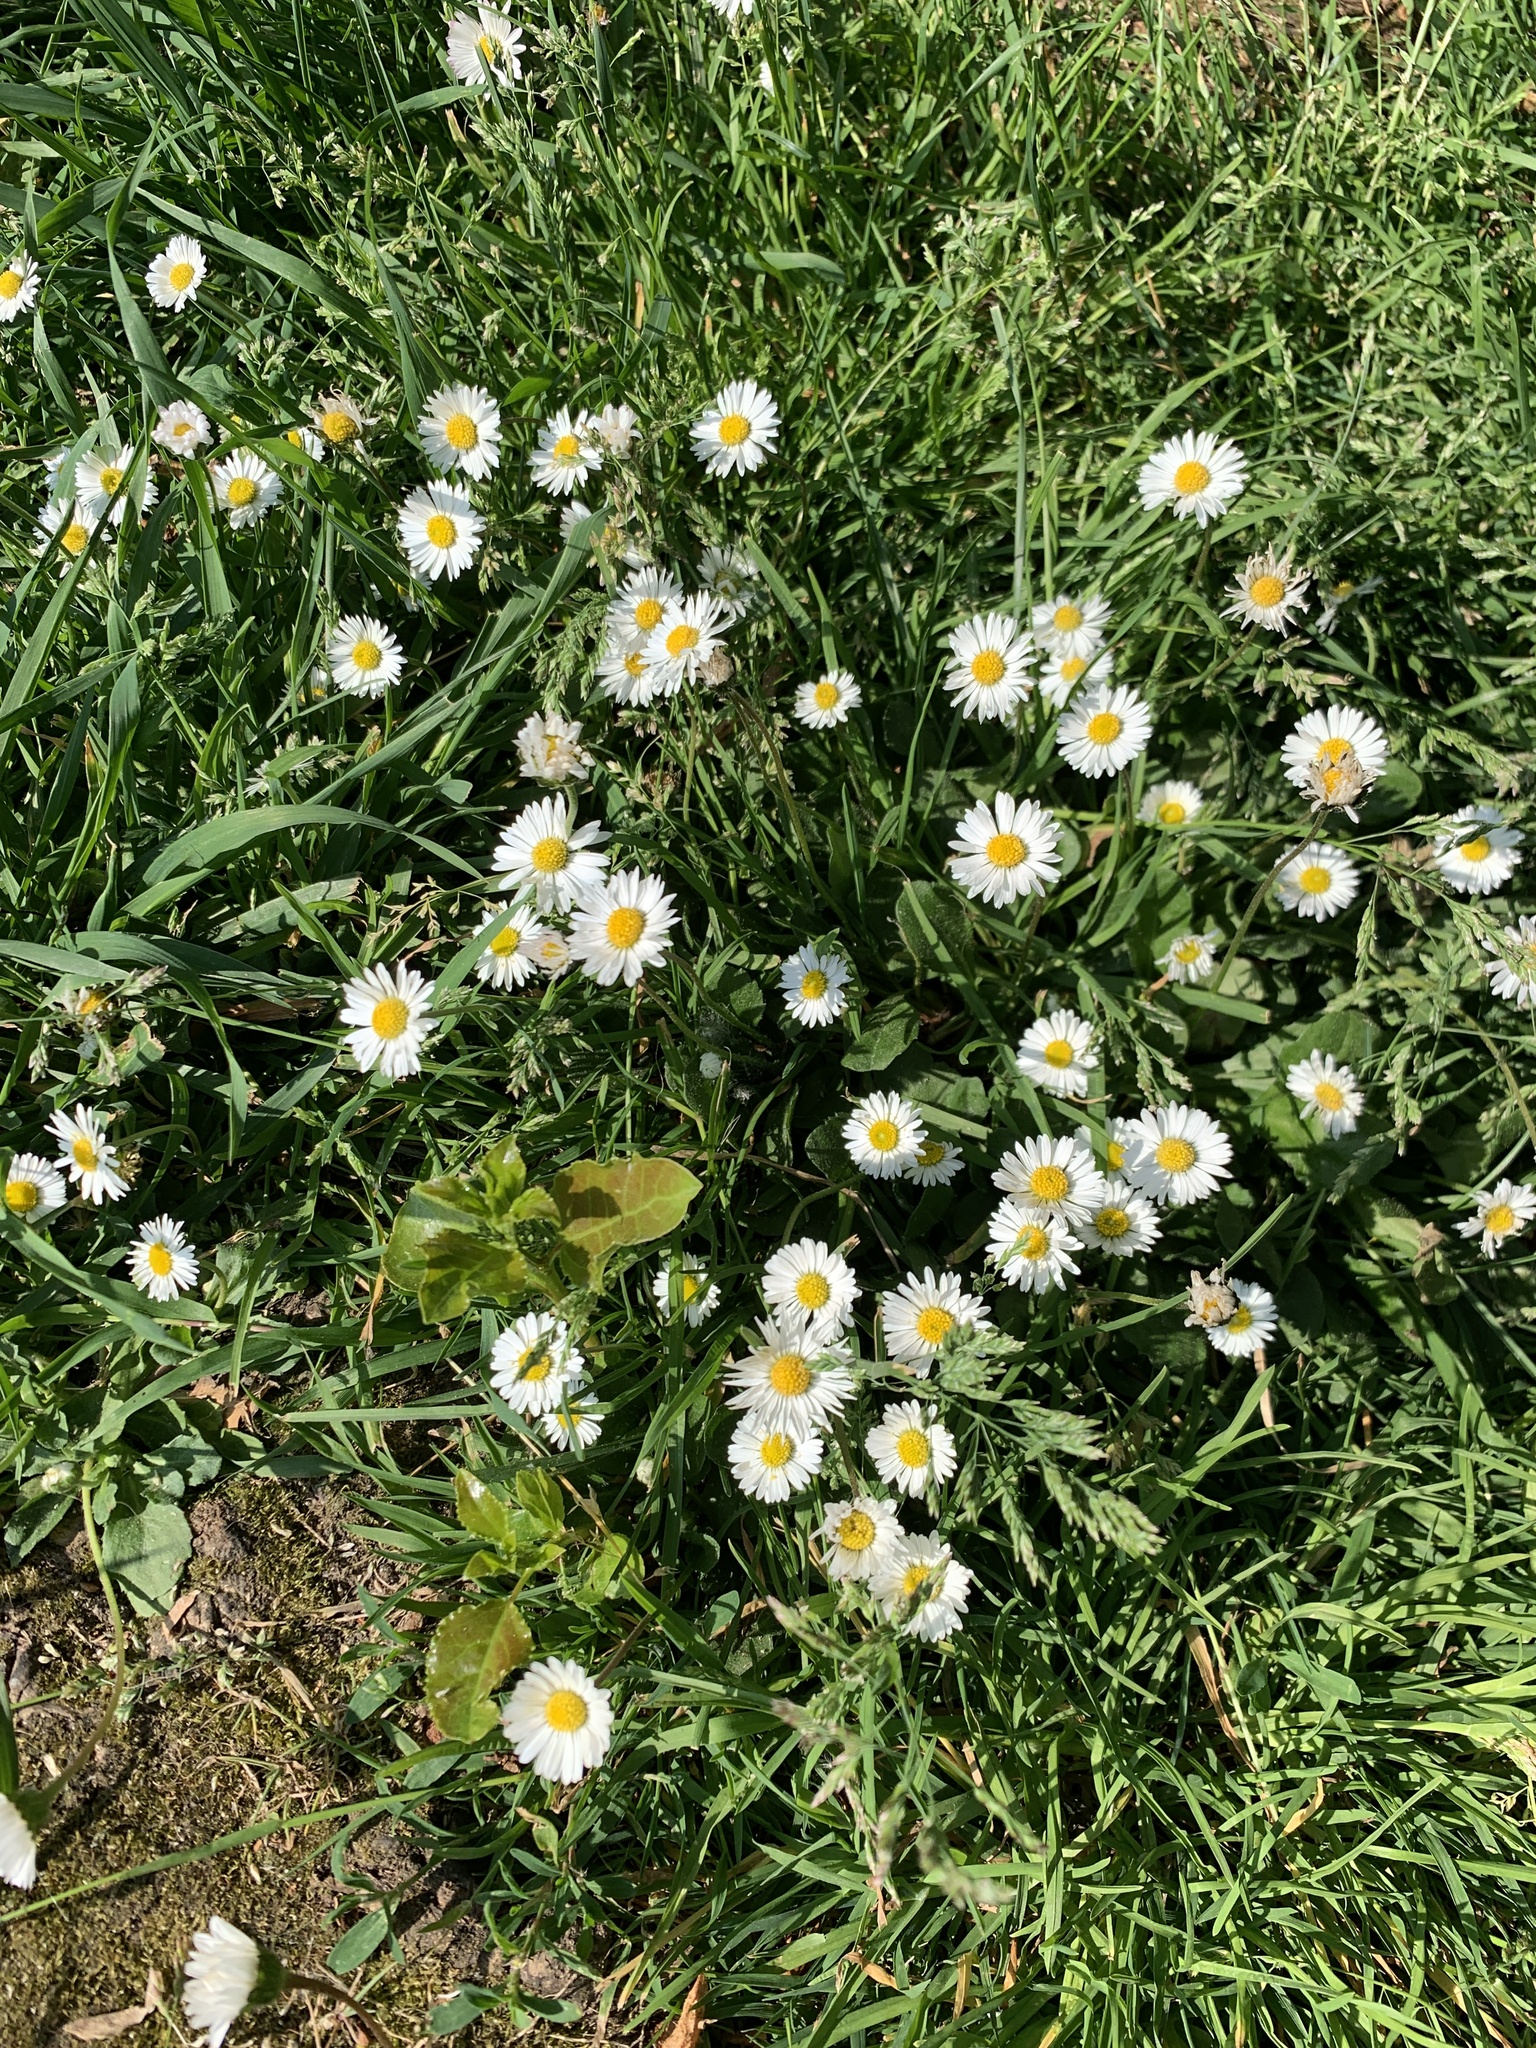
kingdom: Plantae
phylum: Tracheophyta
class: Magnoliopsida
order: Asterales
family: Asteraceae
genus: Bellis
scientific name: Bellis perennis
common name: Lawndaisy
